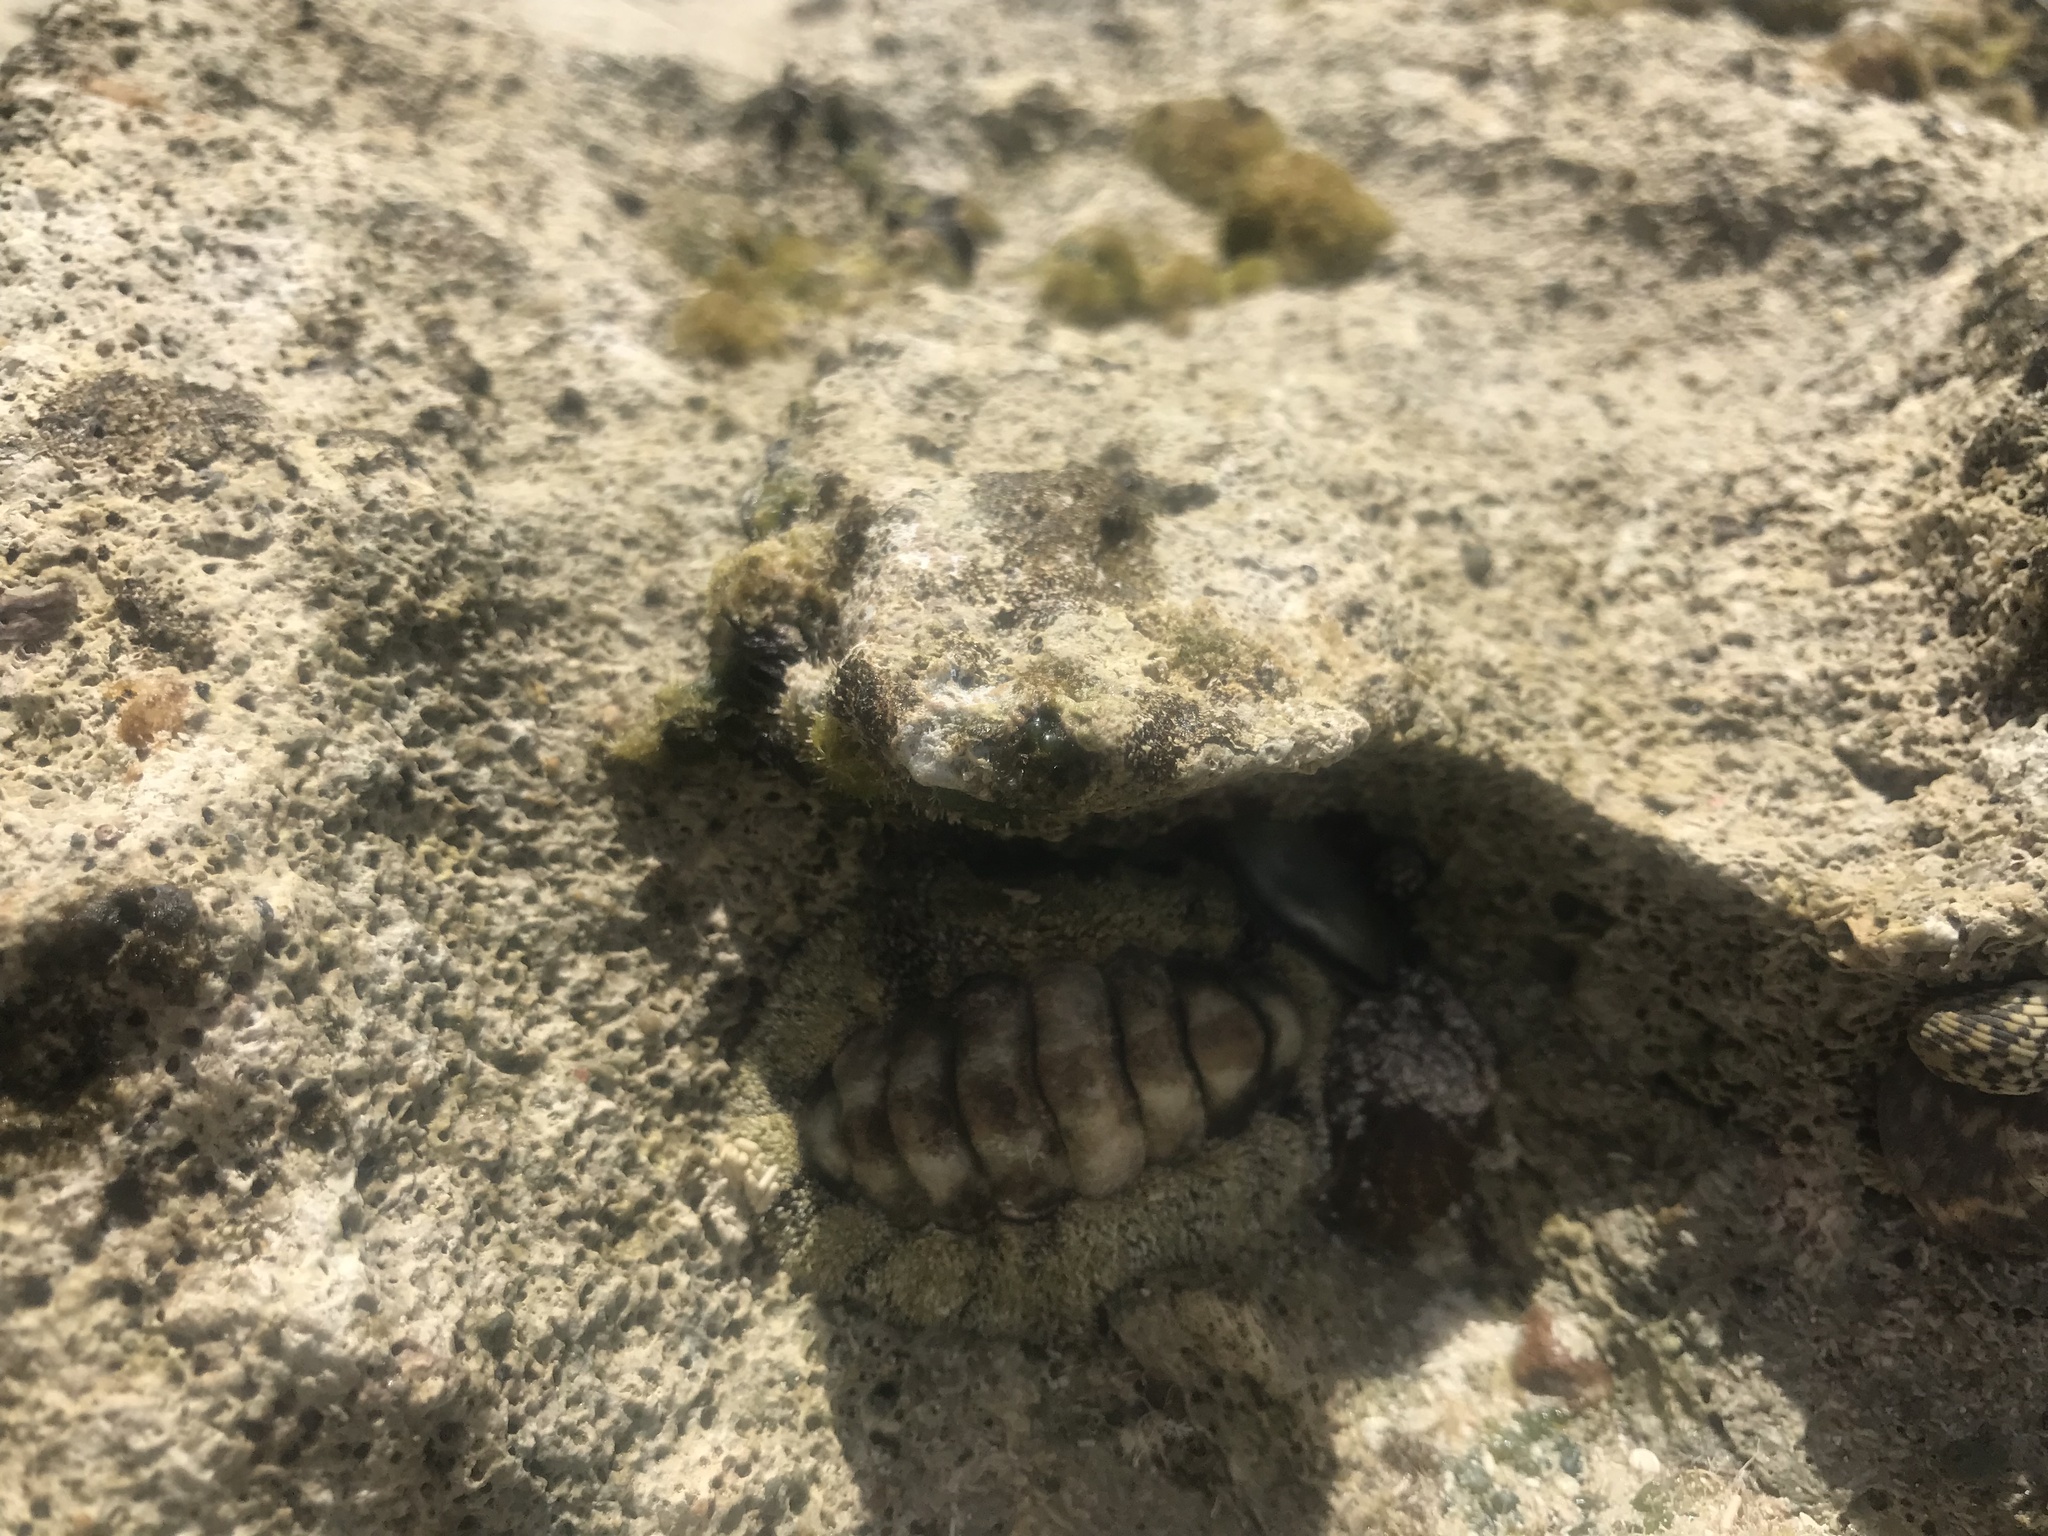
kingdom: Animalia
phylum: Mollusca
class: Polyplacophora
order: Chitonida
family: Chitonidae
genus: Acanthopleura
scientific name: Acanthopleura granulata
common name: West indian fuzzy chiton
